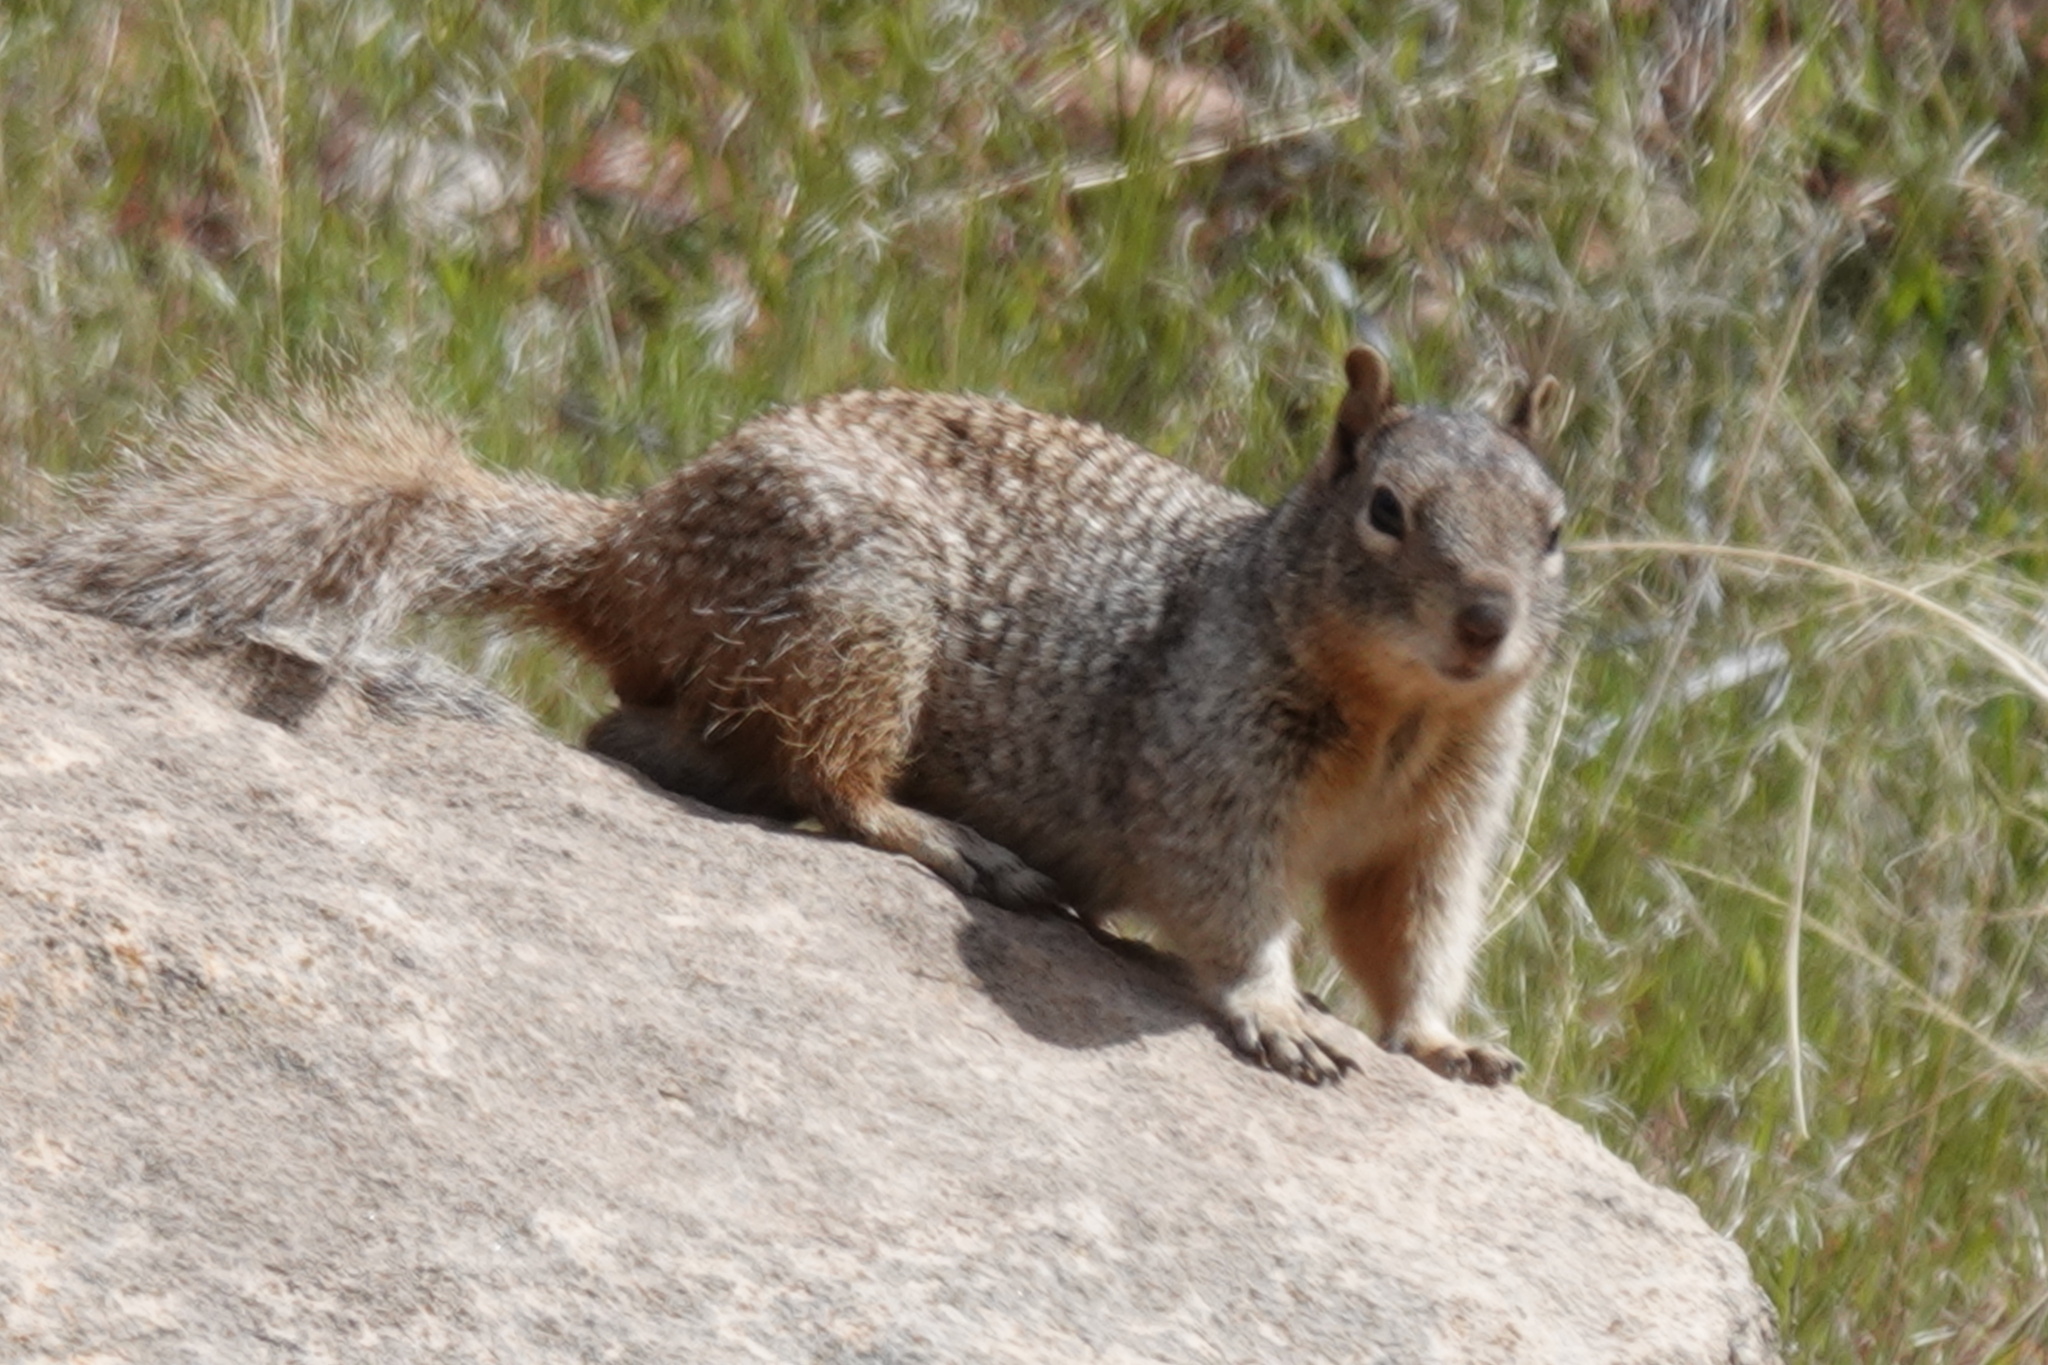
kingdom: Animalia
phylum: Chordata
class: Mammalia
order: Rodentia
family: Sciuridae
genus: Otospermophilus
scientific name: Otospermophilus variegatus
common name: Rock squirrel
